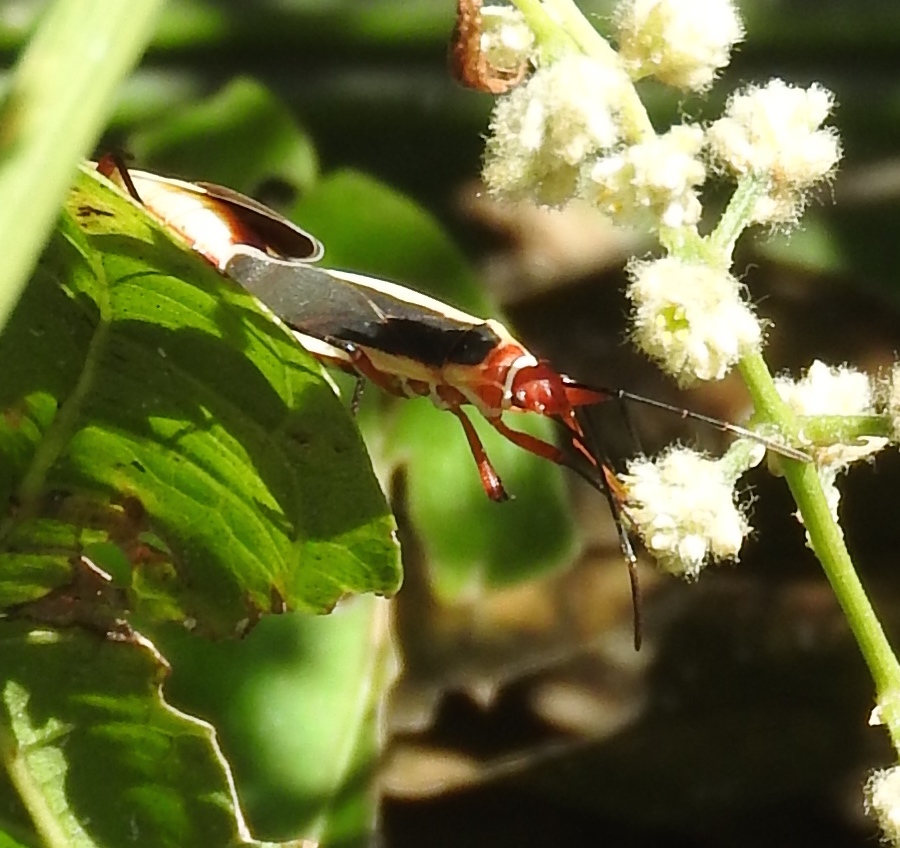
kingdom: Animalia
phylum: Arthropoda
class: Insecta
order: Hemiptera
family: Pyrrhocoridae
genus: Dysdercus
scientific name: Dysdercus obscuratus
